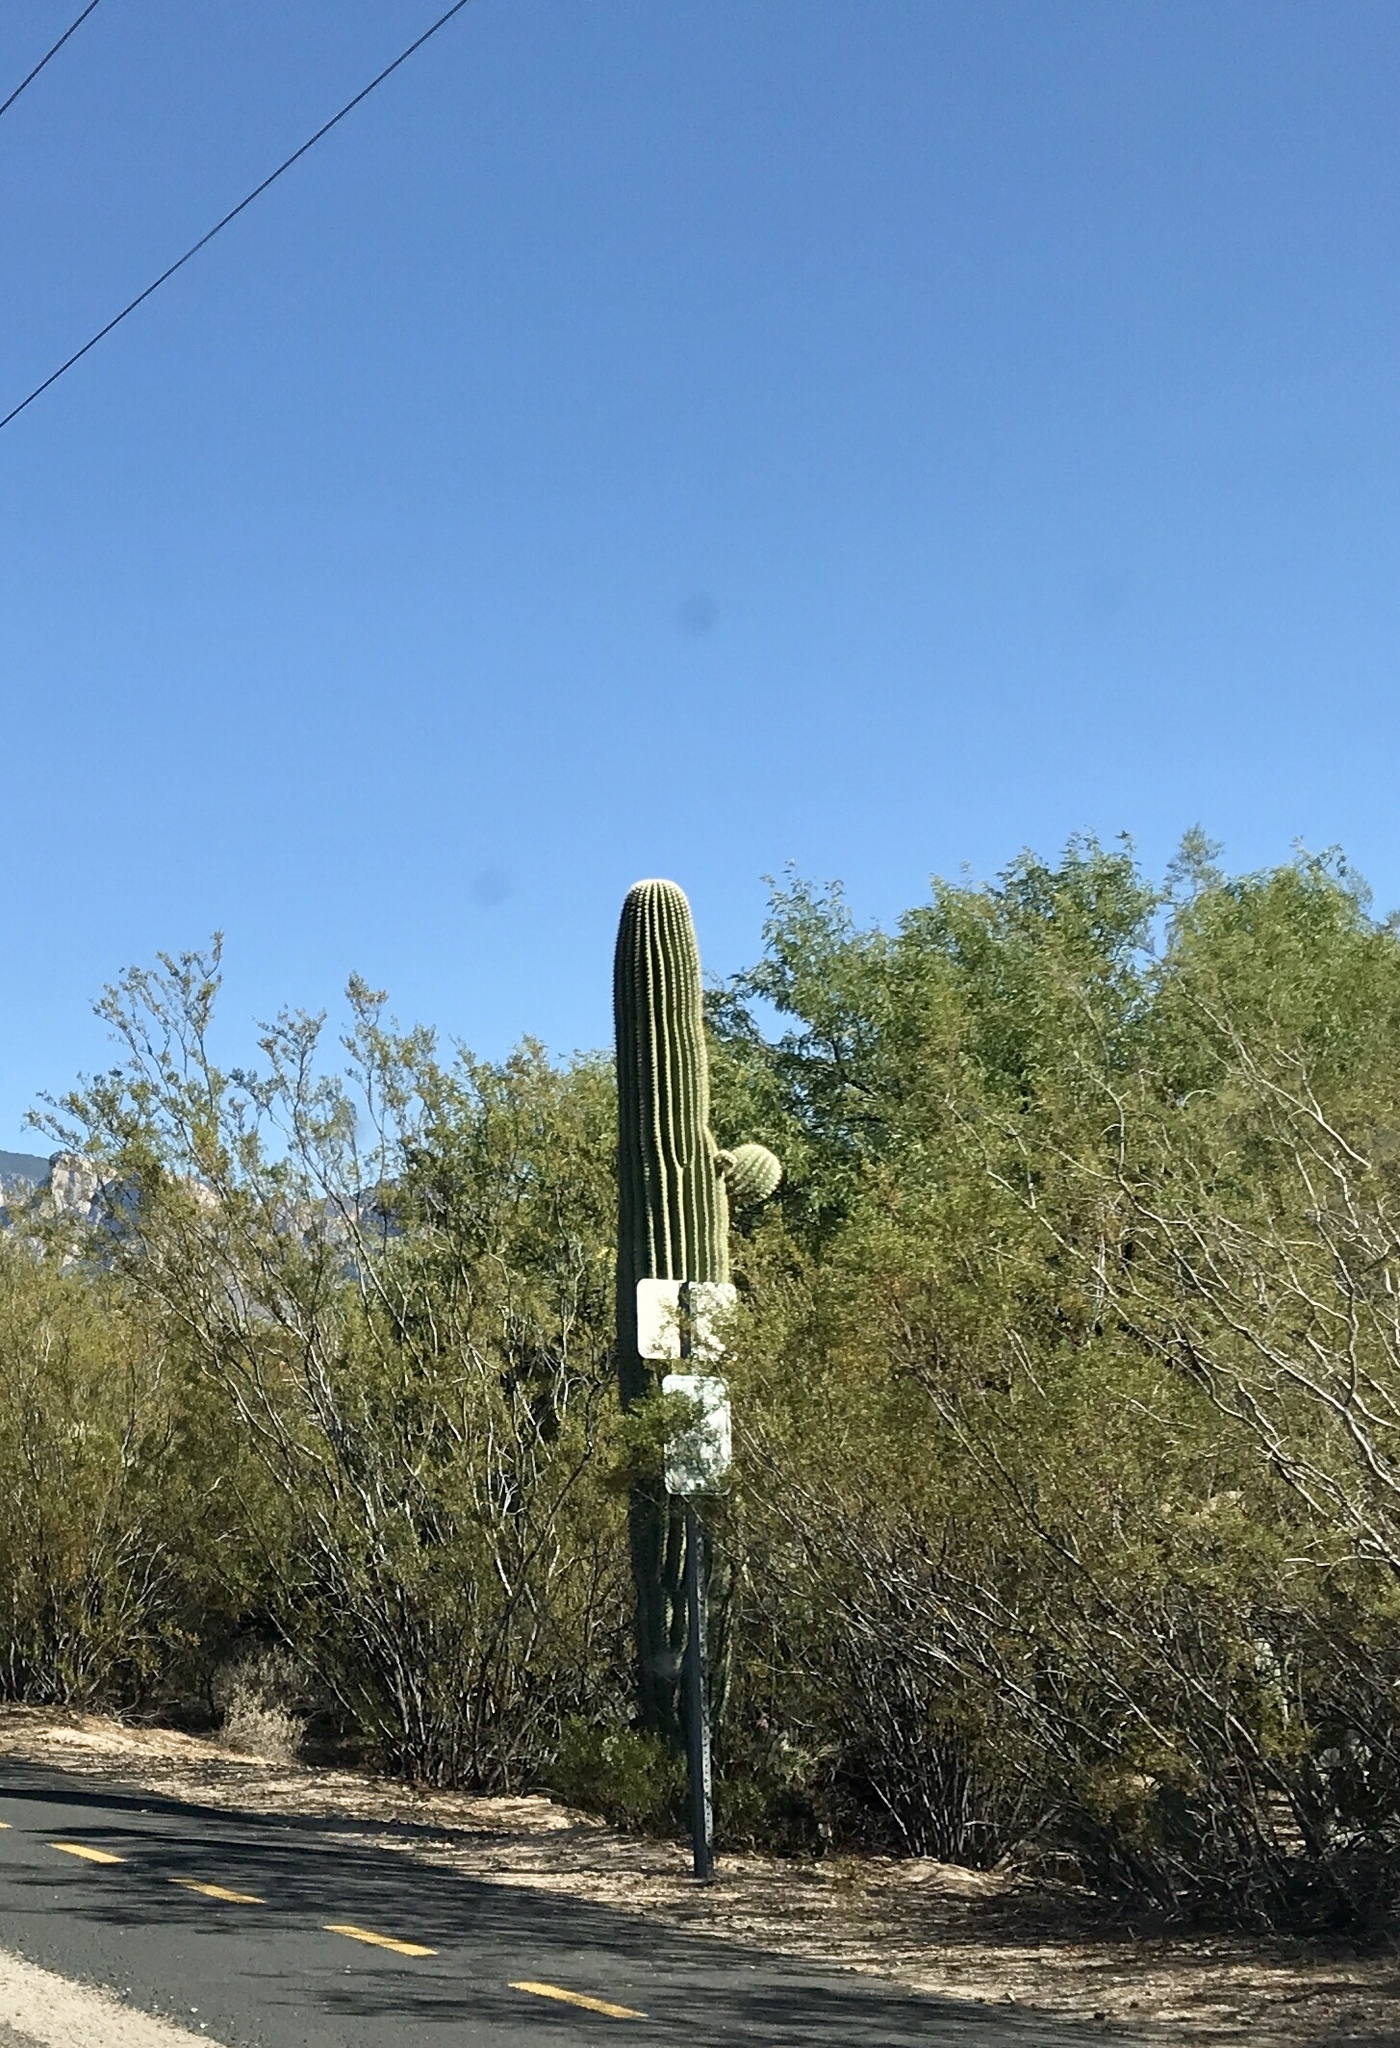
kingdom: Plantae
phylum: Tracheophyta
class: Magnoliopsida
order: Caryophyllales
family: Cactaceae
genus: Carnegiea
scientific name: Carnegiea gigantea
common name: Saguaro
